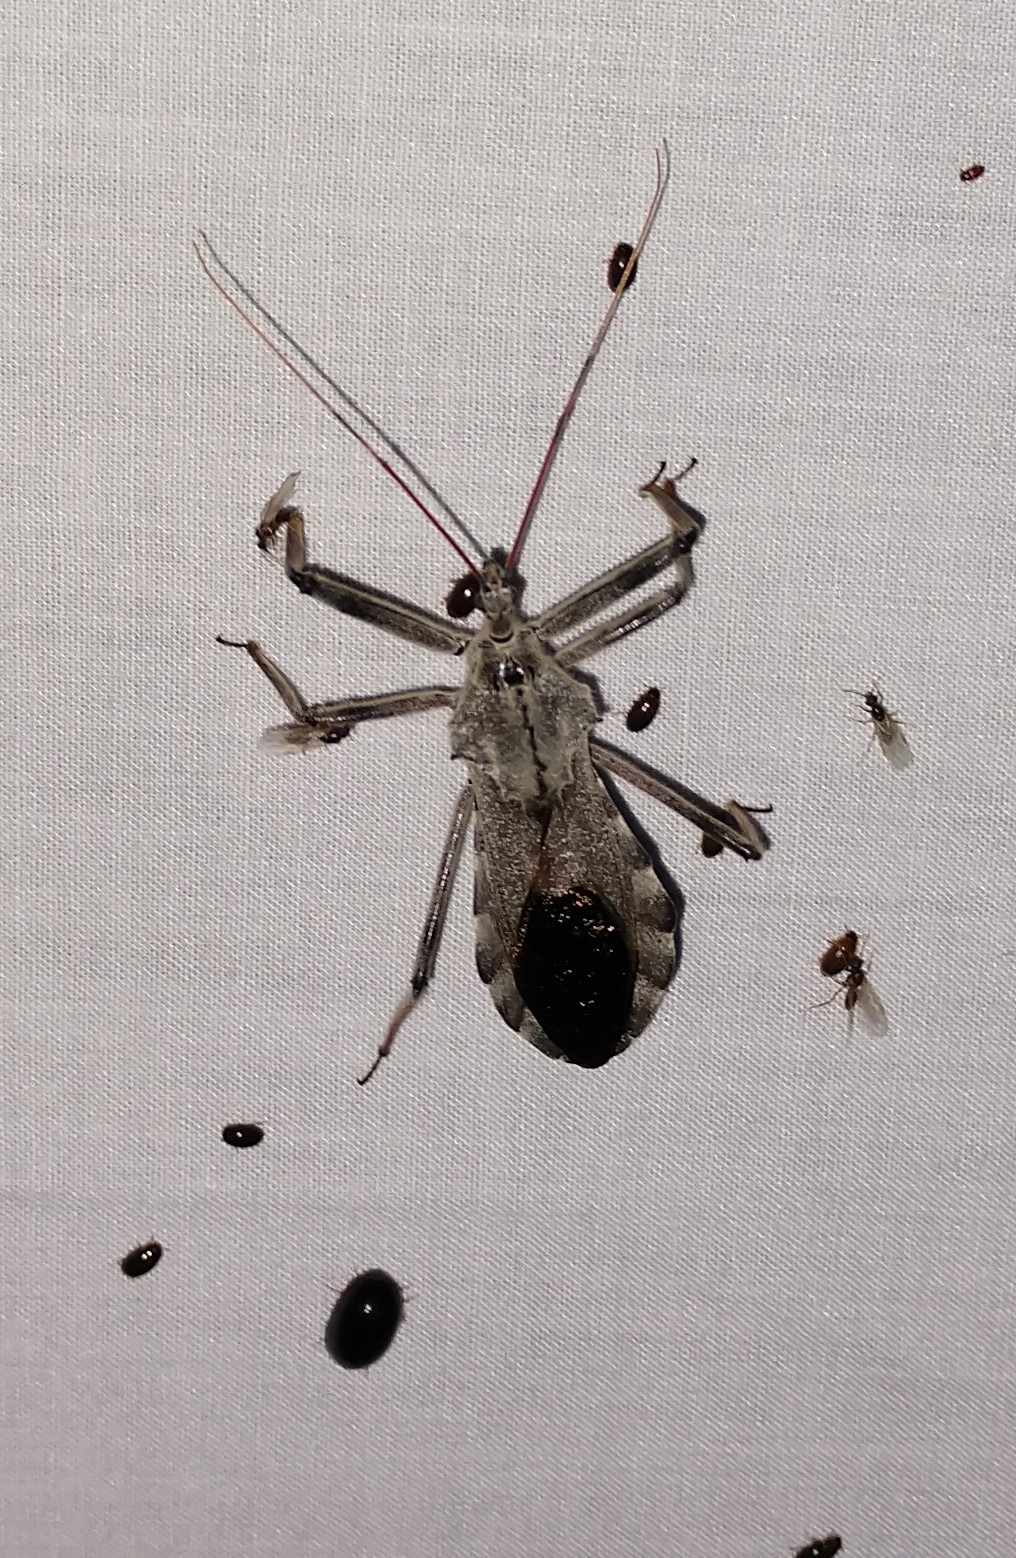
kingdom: Animalia
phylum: Arthropoda
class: Insecta
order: Hemiptera
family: Reduviidae
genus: Arilus
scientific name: Arilus cristatus
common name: North american wheel bug
